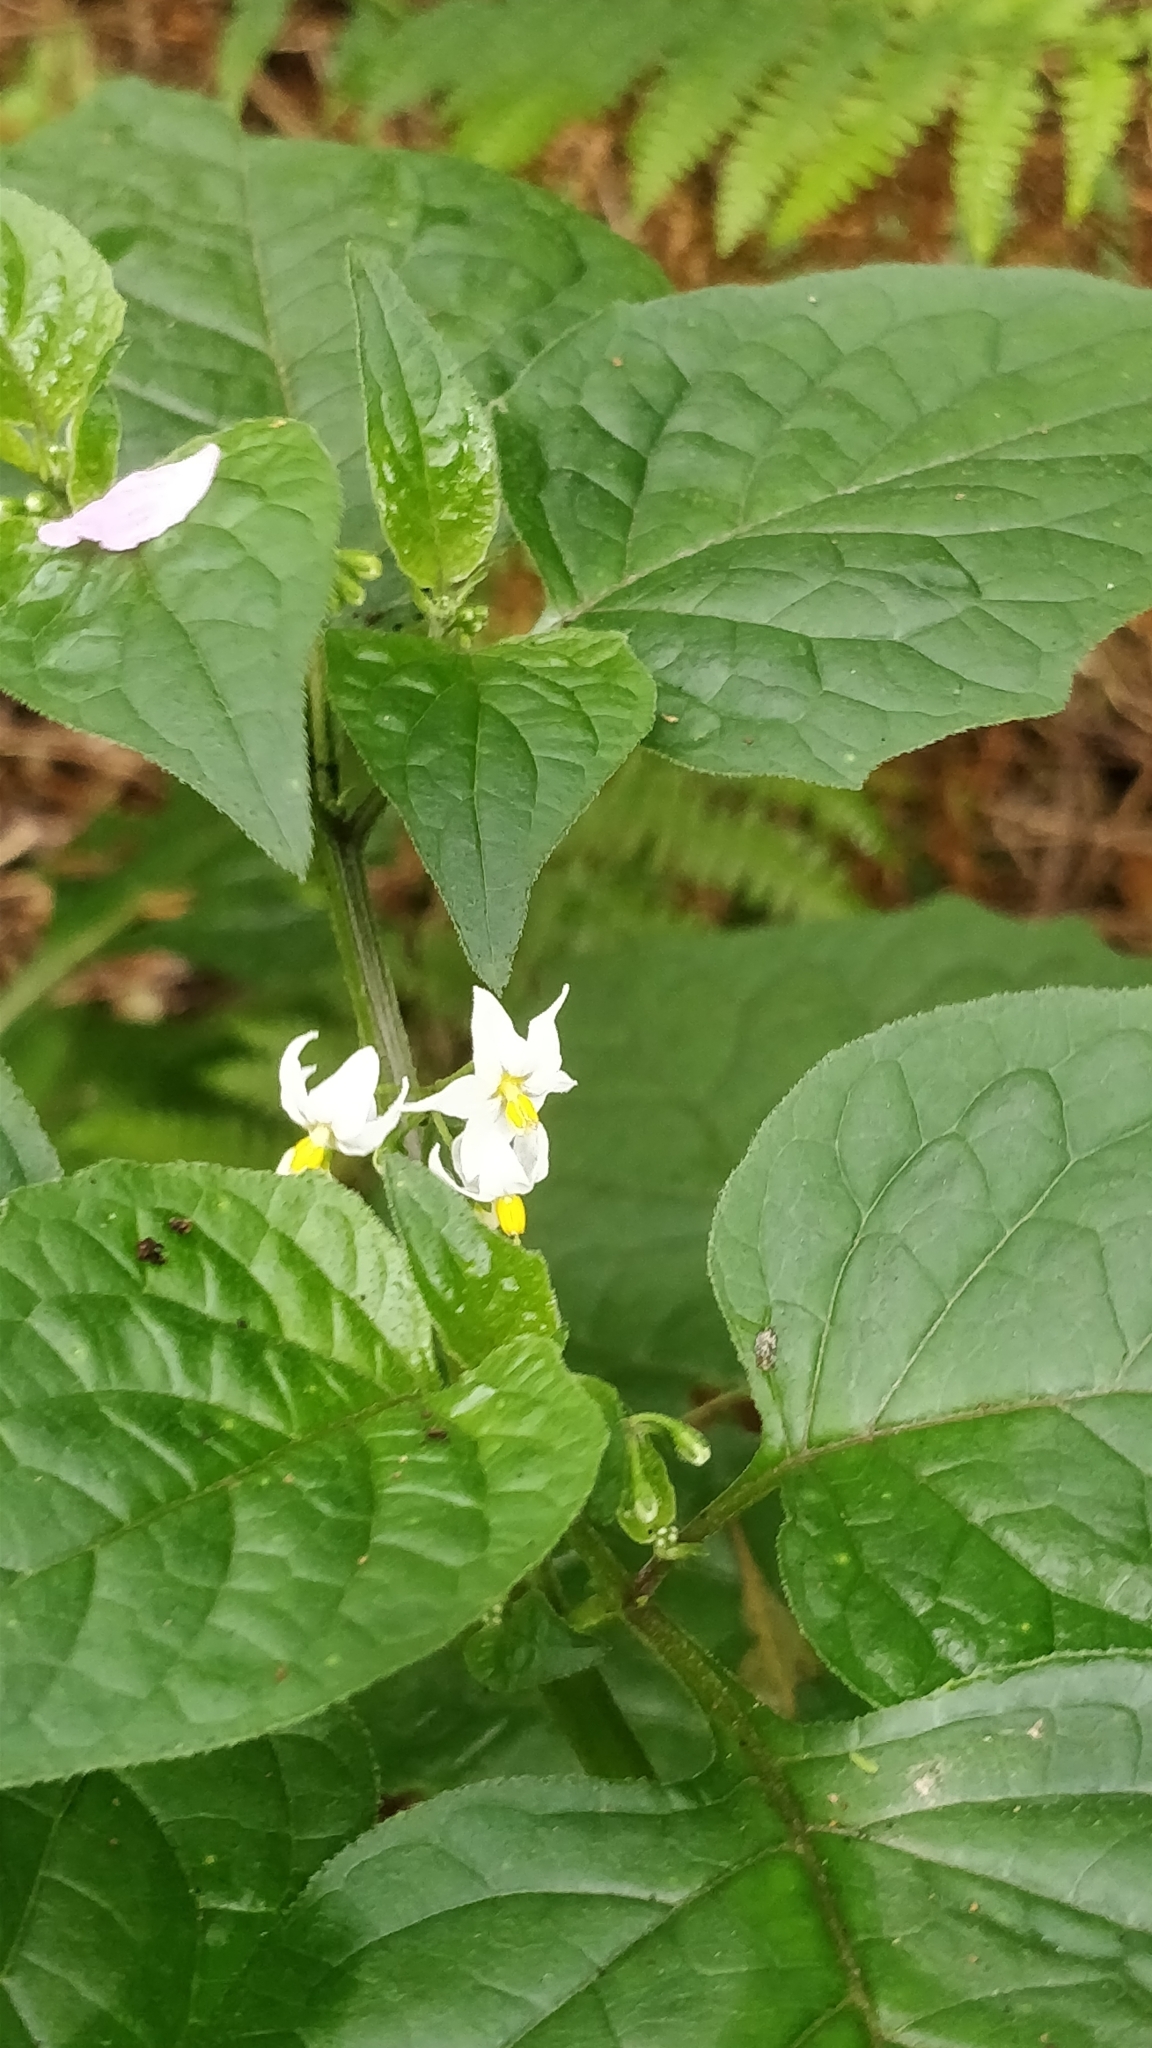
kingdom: Plantae
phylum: Tracheophyta
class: Magnoliopsida
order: Solanales
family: Solanaceae
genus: Solanum
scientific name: Solanum nigrum
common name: Black nightshade
